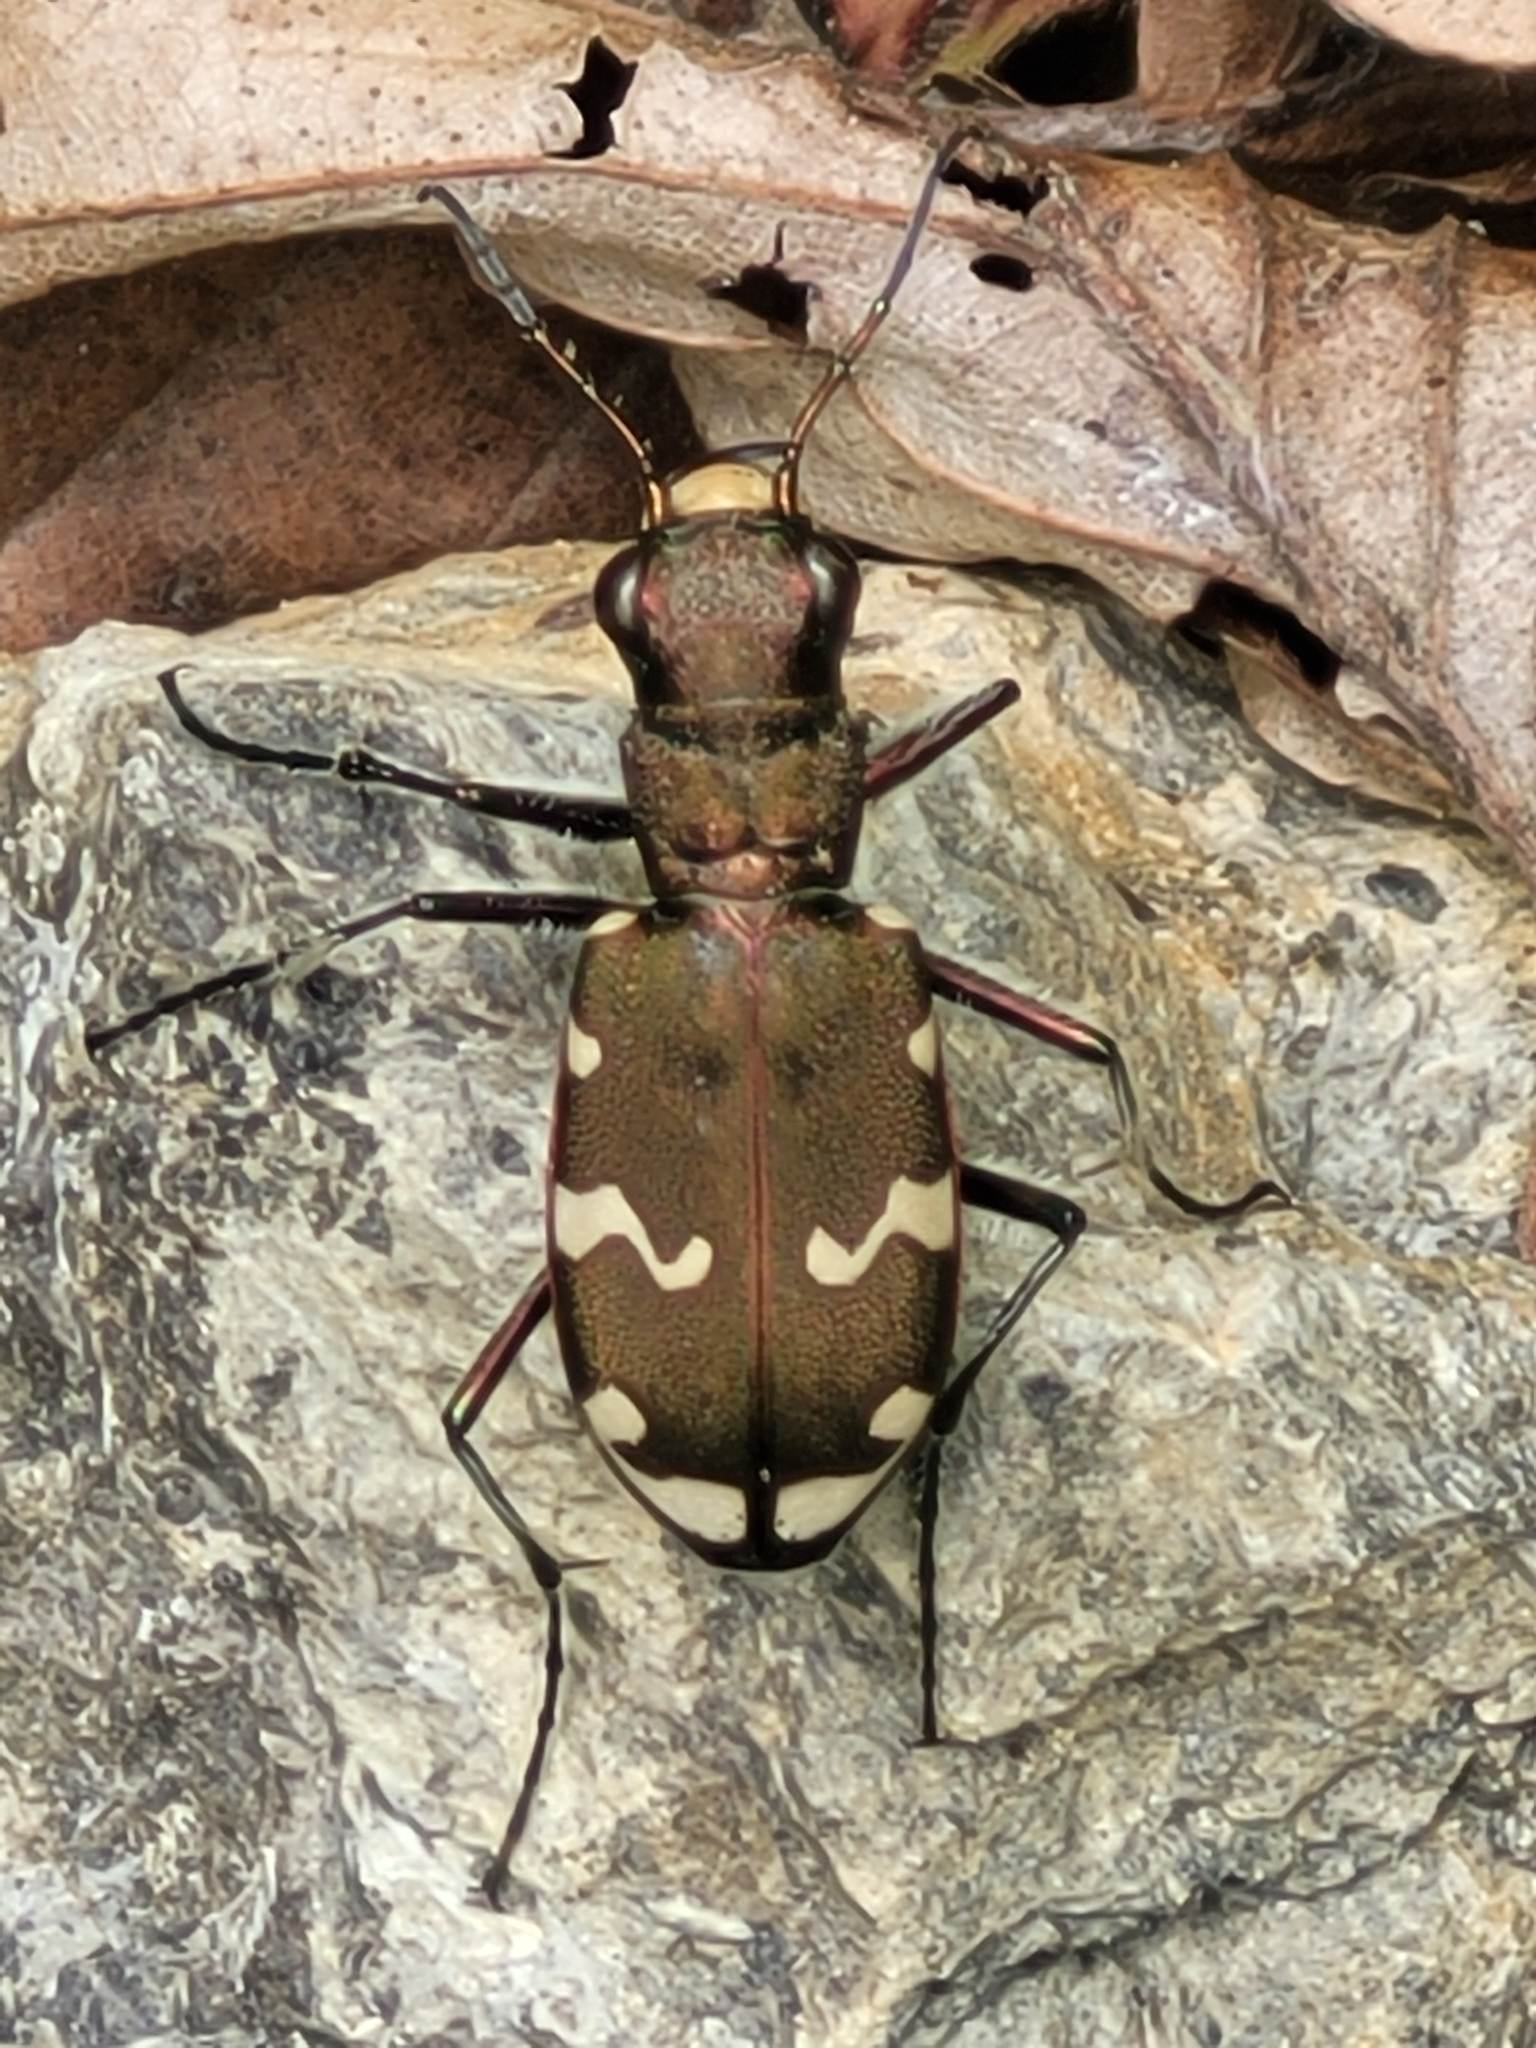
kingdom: Animalia
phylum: Arthropoda
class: Insecta
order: Coleoptera
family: Carabidae
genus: Cicindela
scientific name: Cicindela sylvicola
